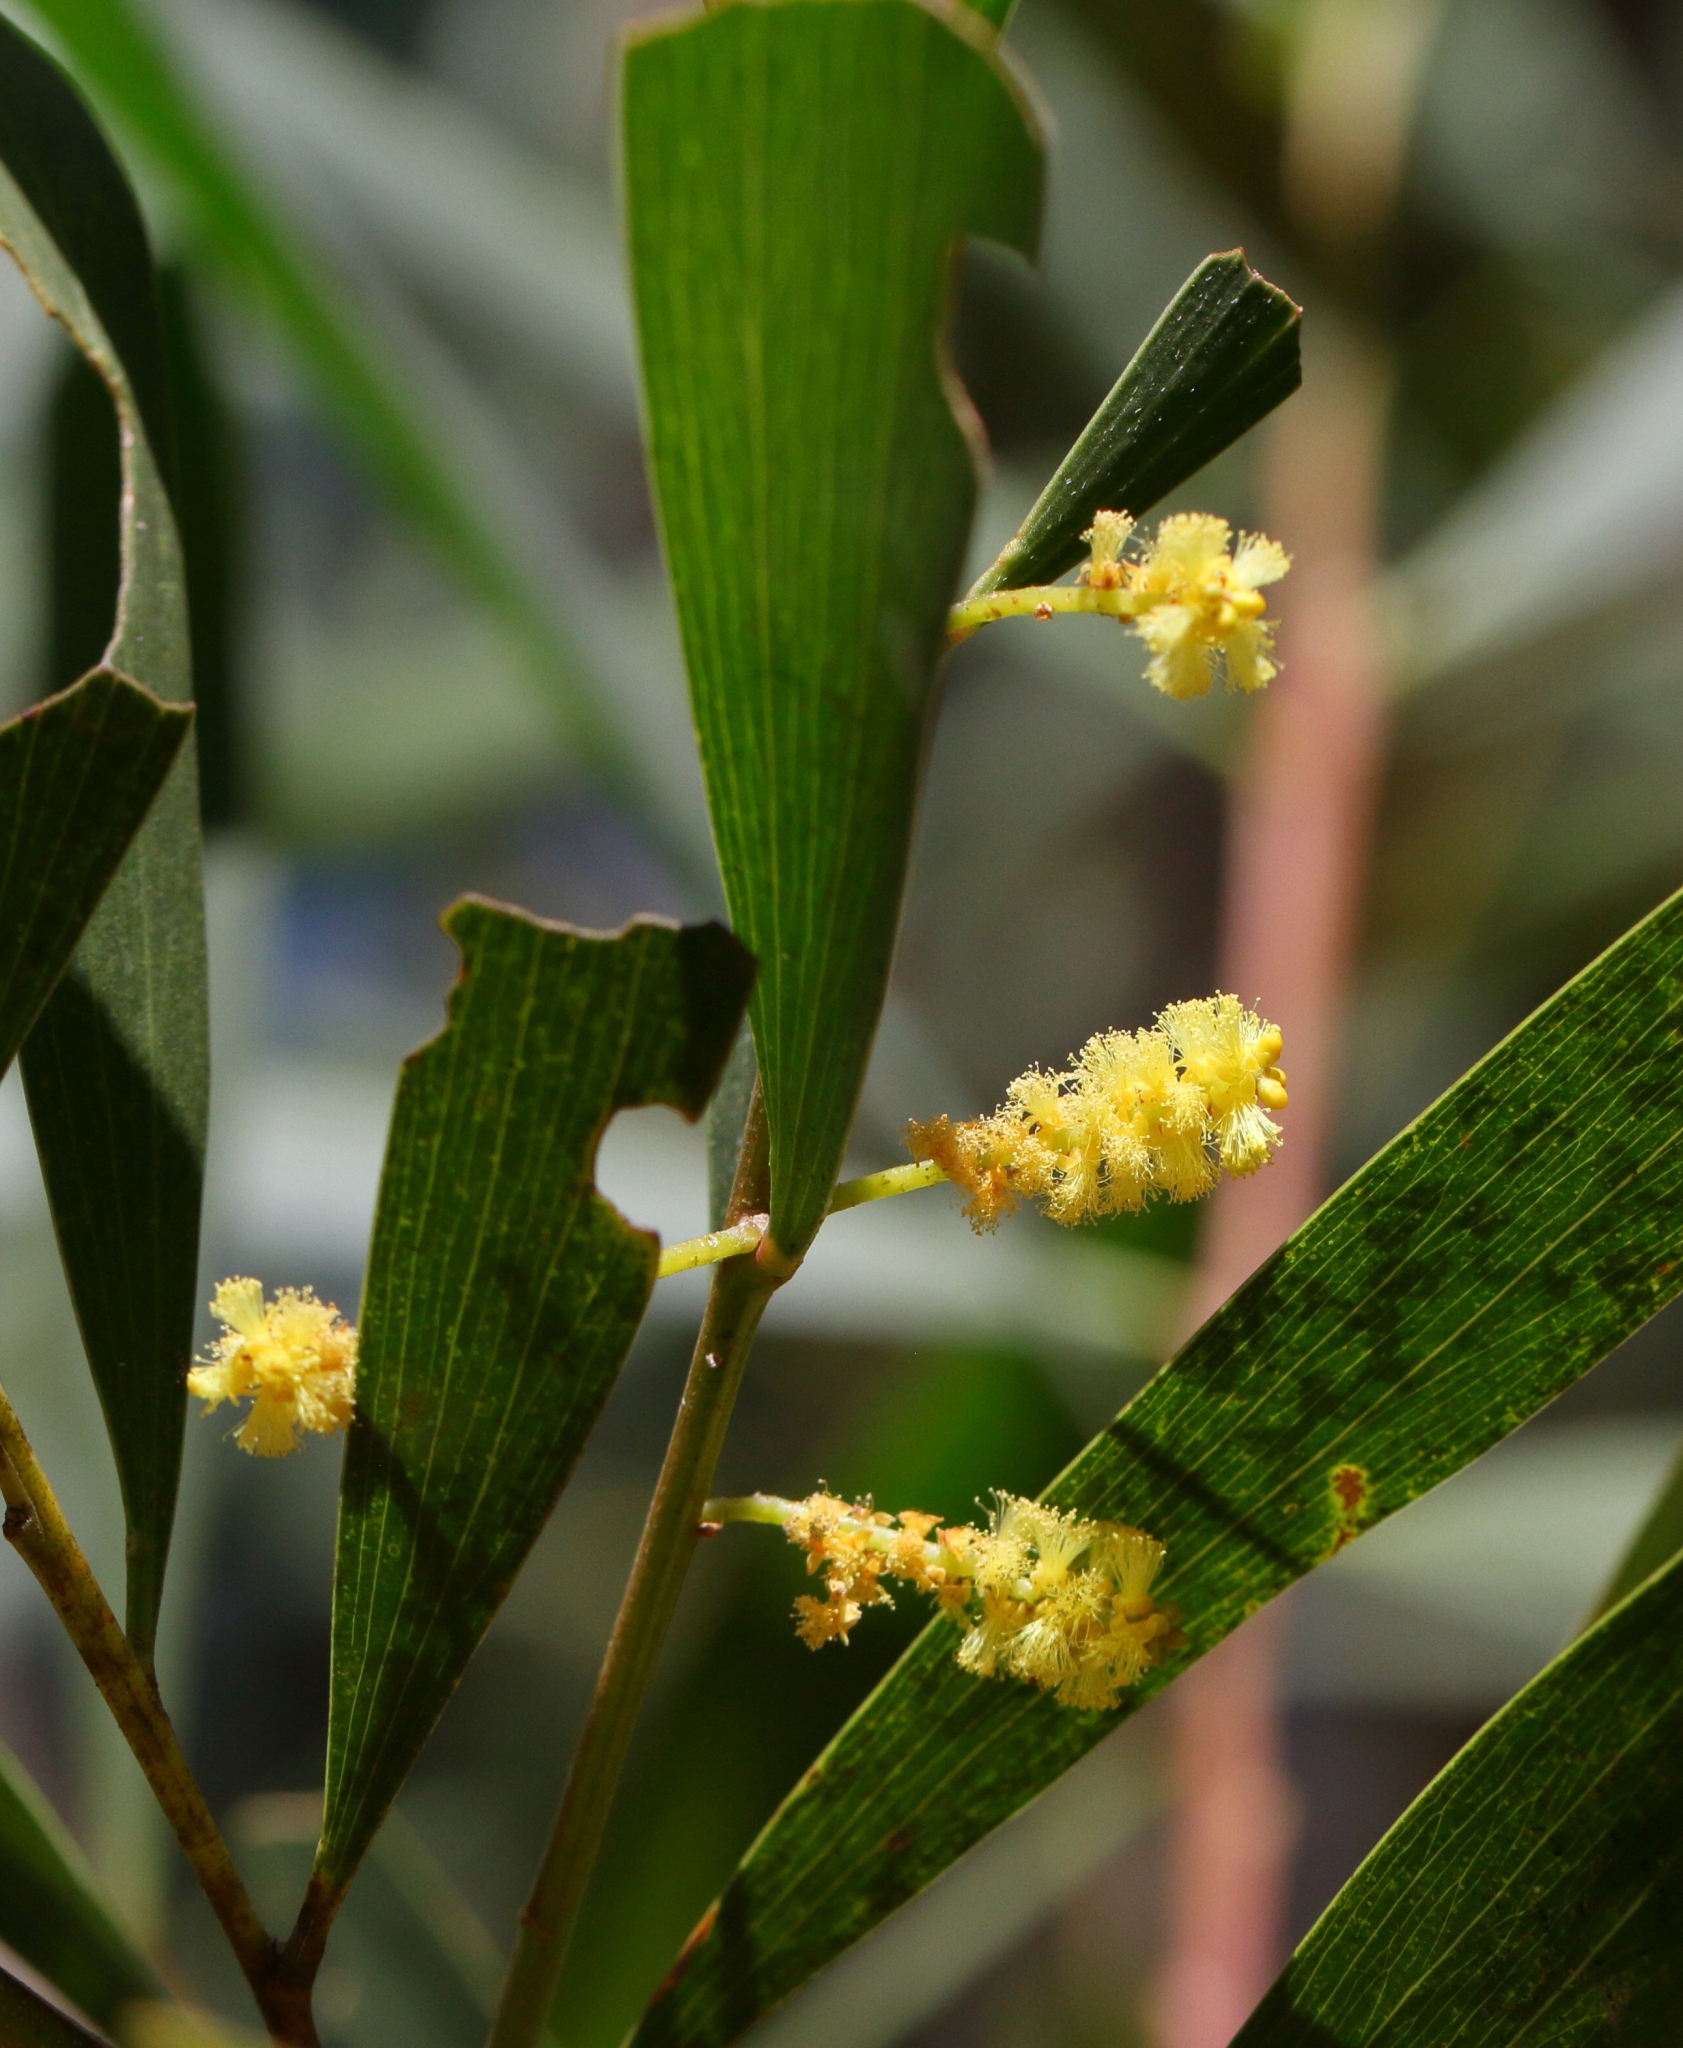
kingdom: Plantae
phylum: Tracheophyta
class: Magnoliopsida
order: Fabales
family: Fabaceae
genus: Acacia
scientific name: Acacia longifolia
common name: Sydney golden wattle
